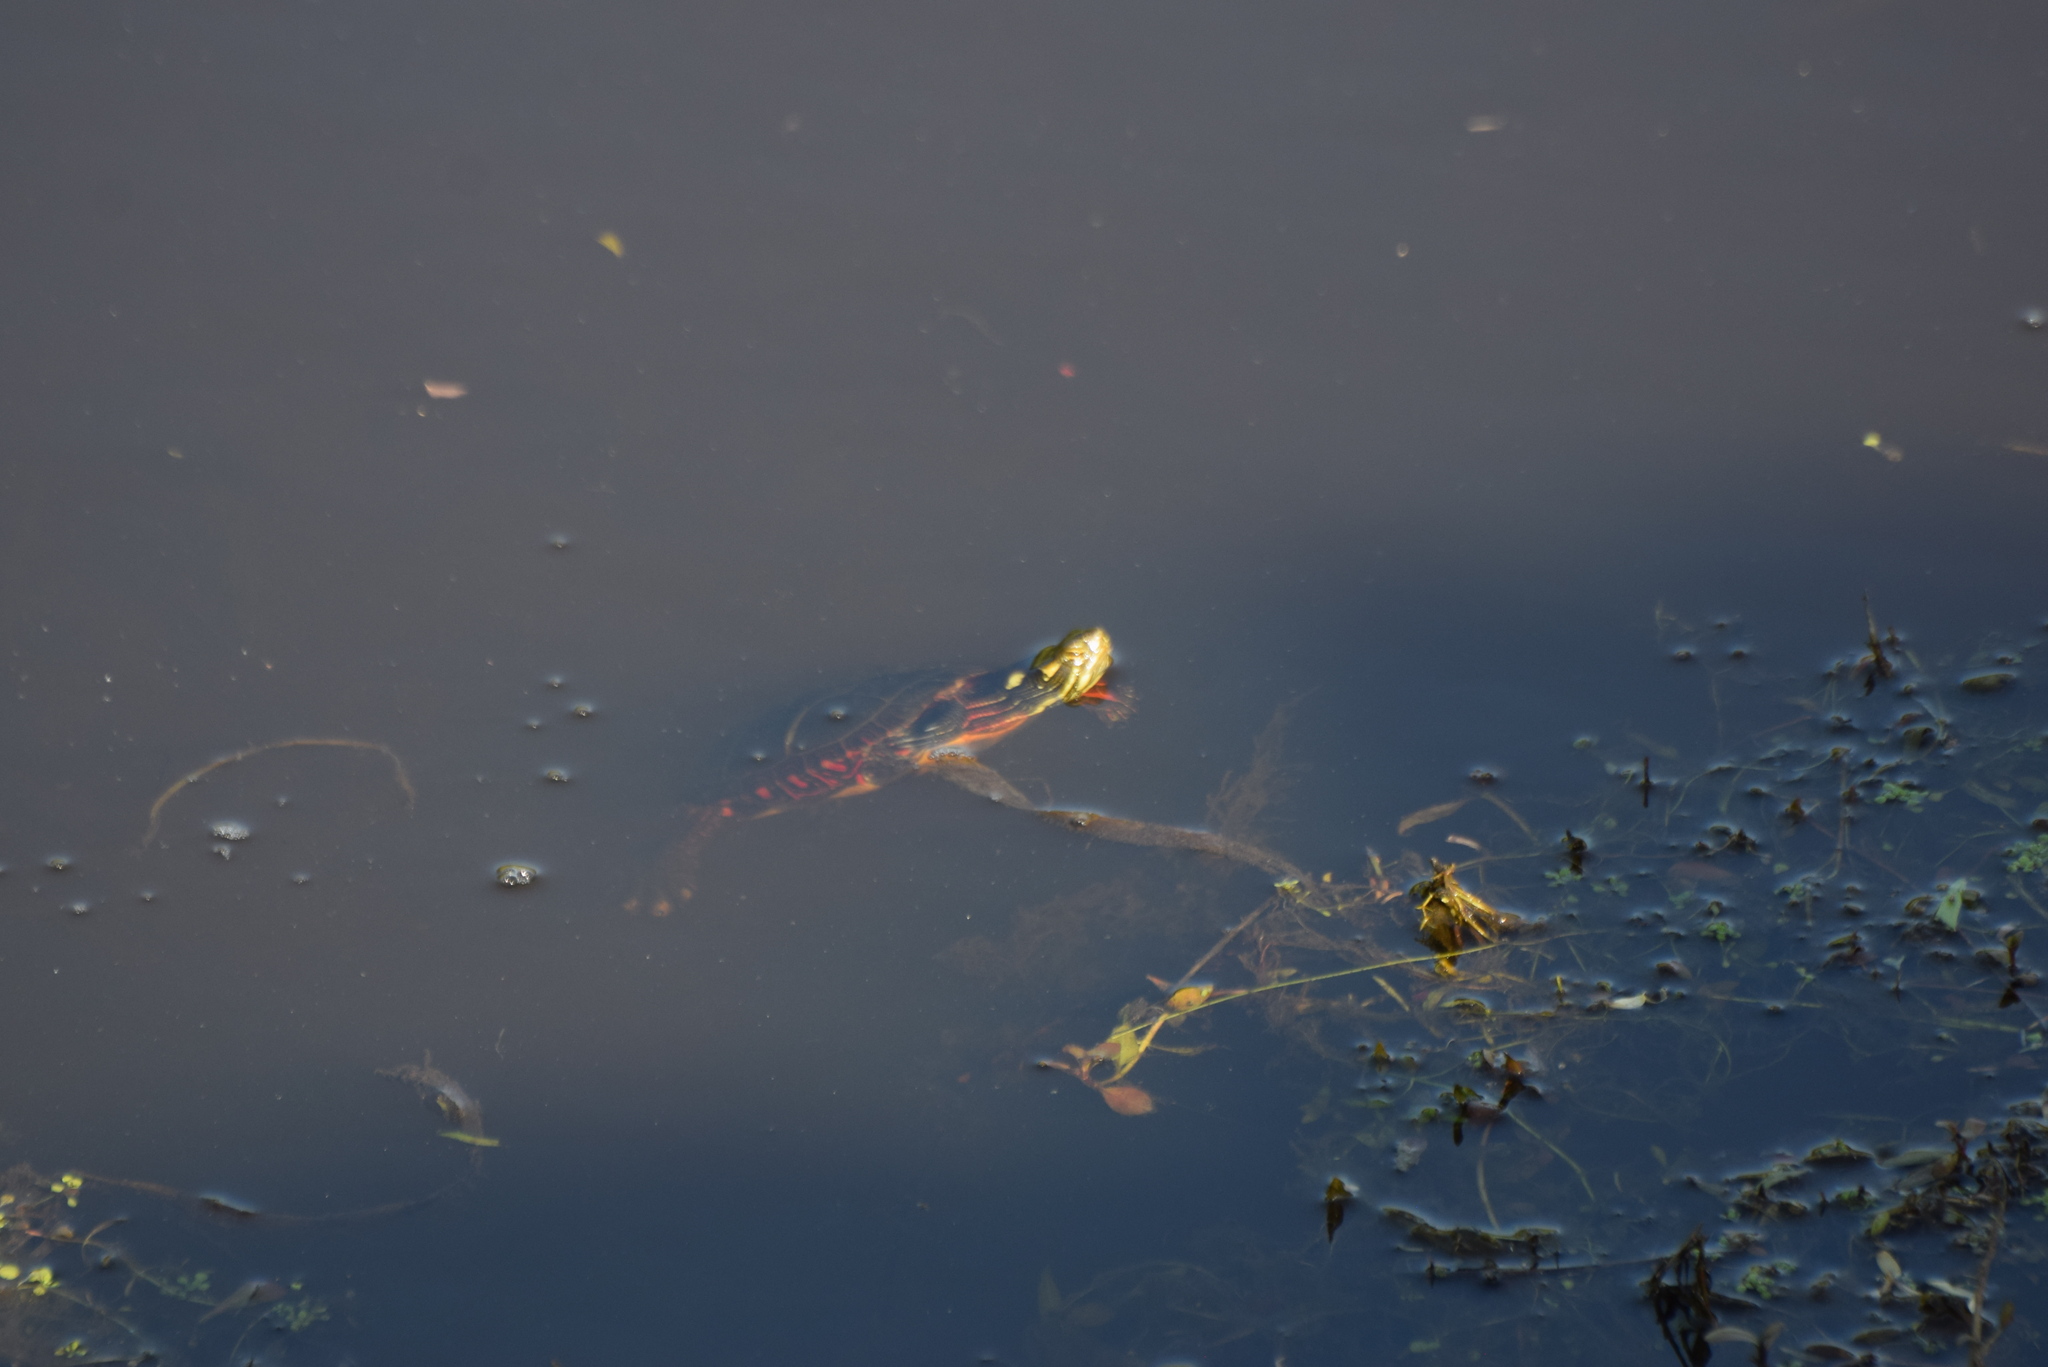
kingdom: Animalia
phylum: Chordata
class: Testudines
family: Emydidae
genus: Chrysemys
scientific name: Chrysemys picta
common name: Painted turtle
